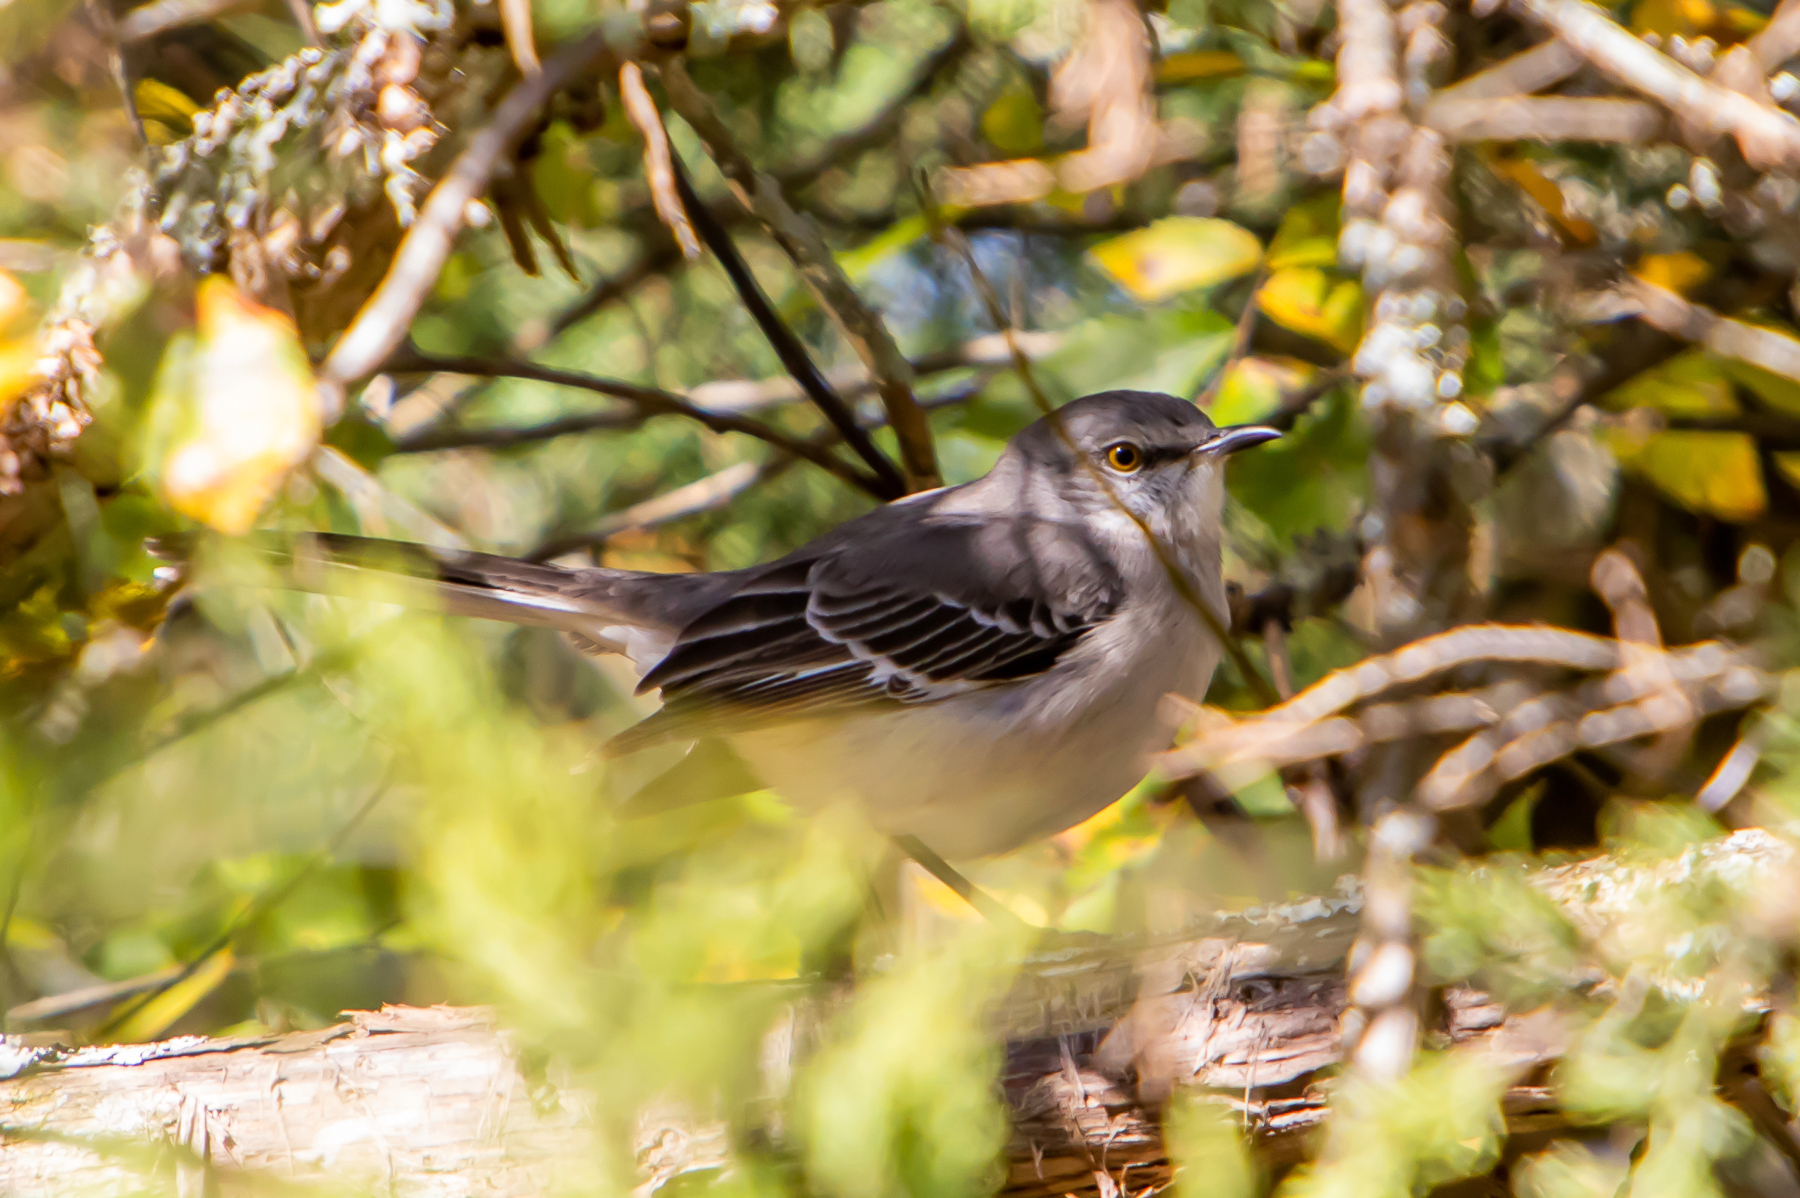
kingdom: Animalia
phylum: Chordata
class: Aves
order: Passeriformes
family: Mimidae
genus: Mimus
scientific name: Mimus polyglottos
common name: Northern mockingbird
